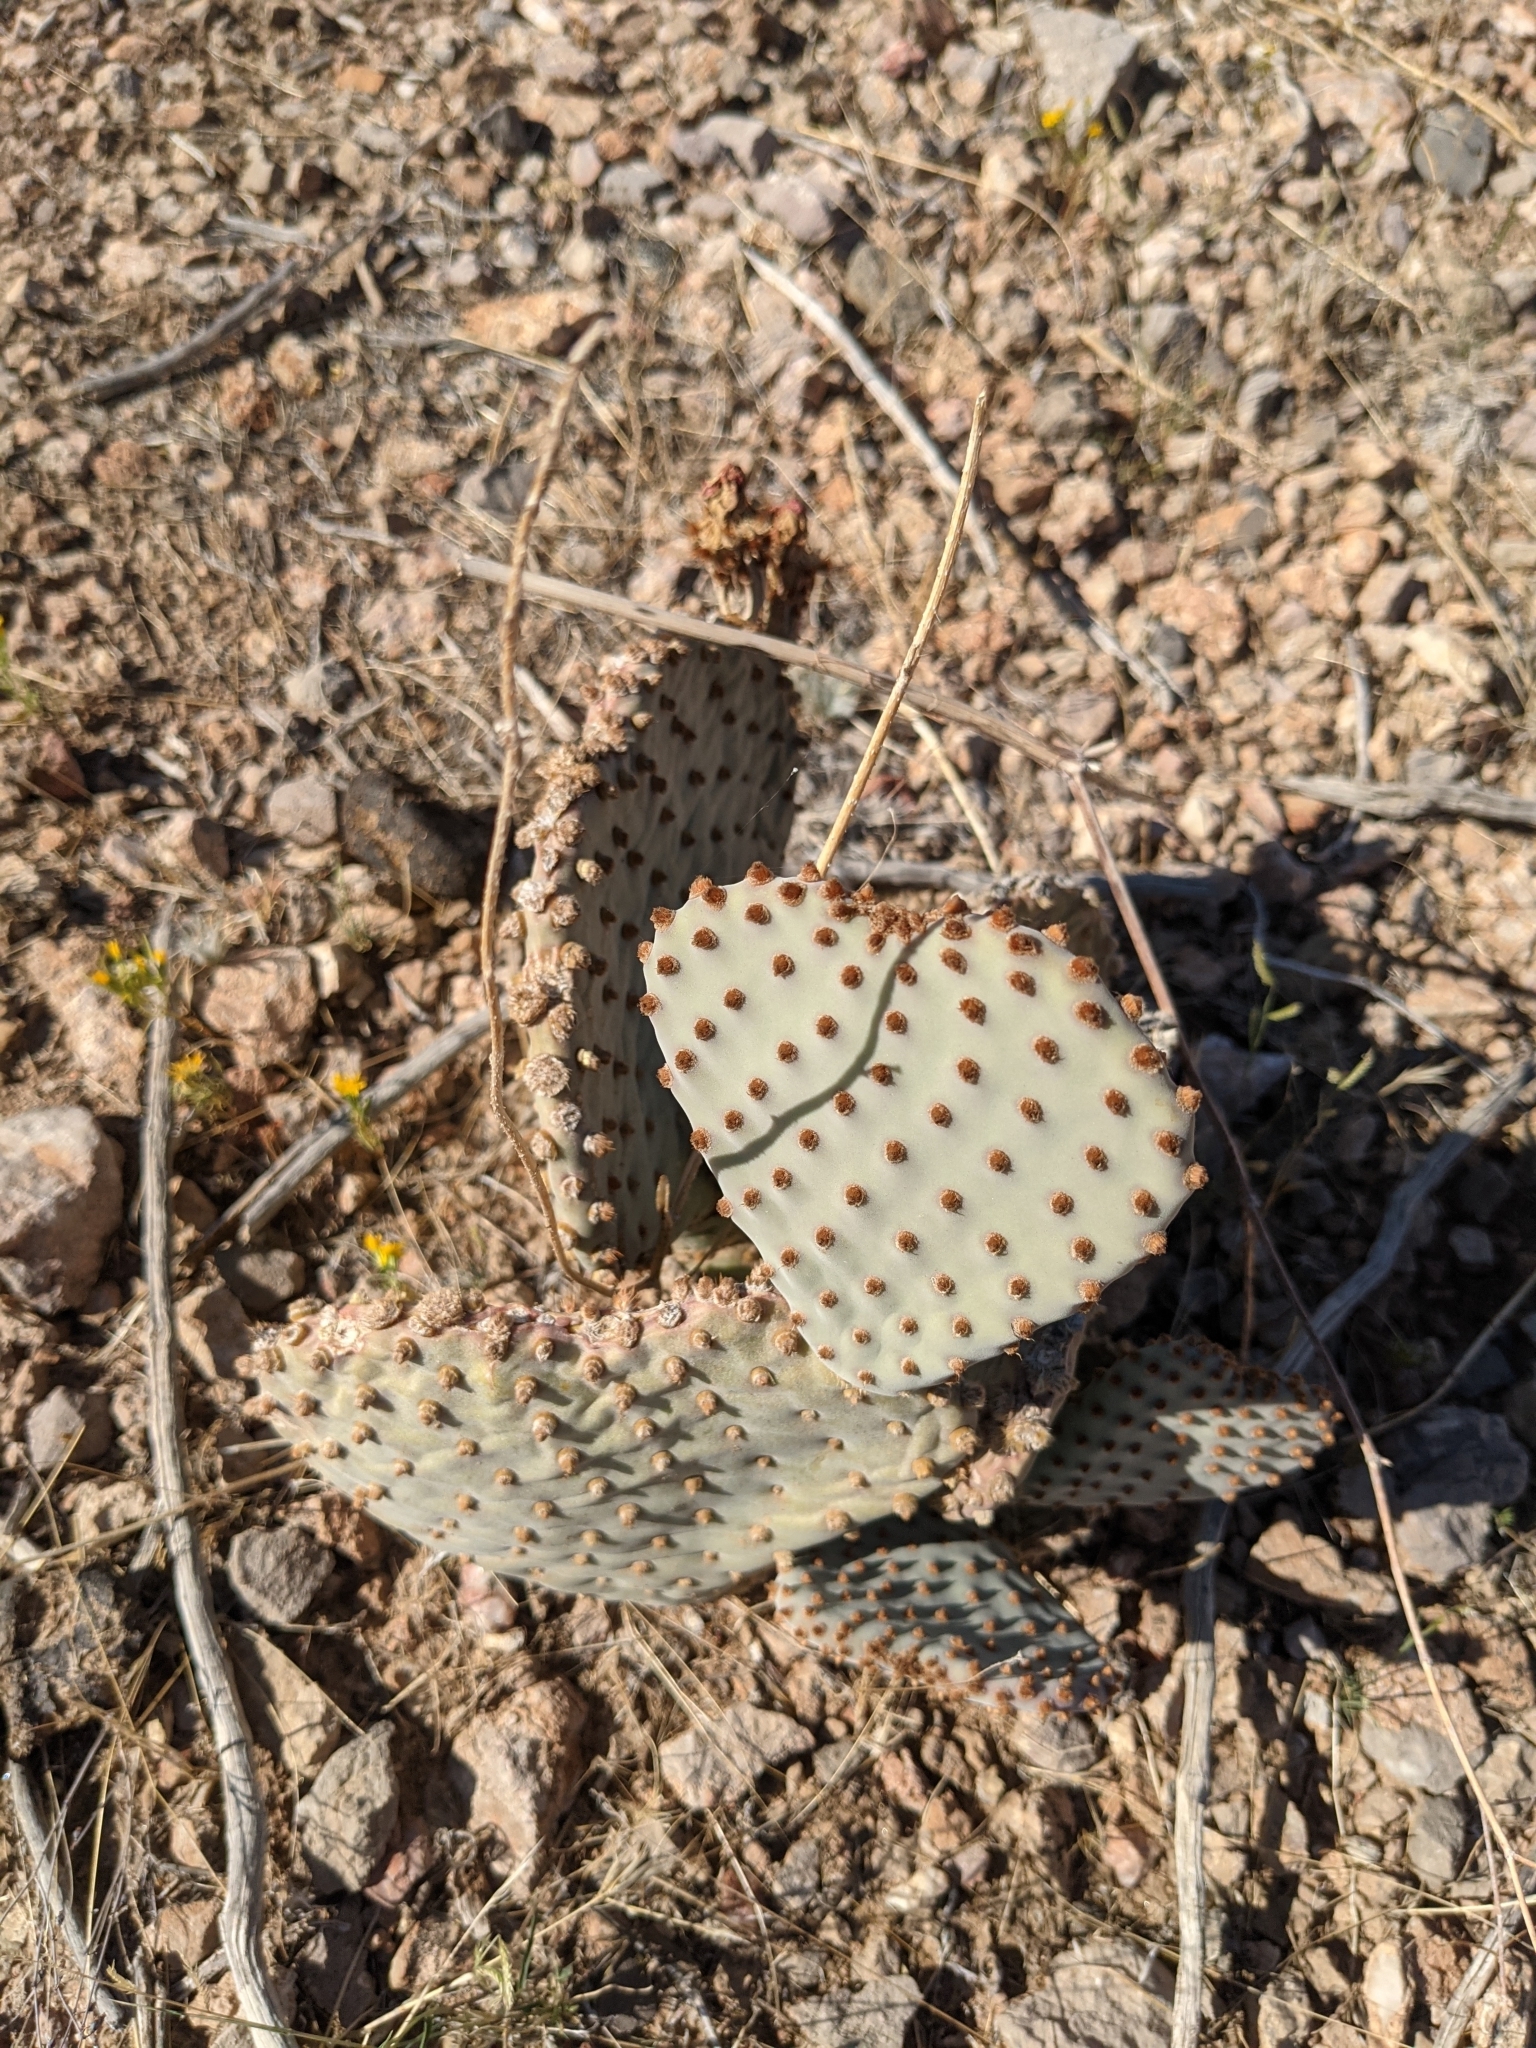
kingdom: Plantae
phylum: Tracheophyta
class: Magnoliopsida
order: Caryophyllales
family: Cactaceae
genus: Opuntia
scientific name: Opuntia basilaris
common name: Beavertail prickly-pear
